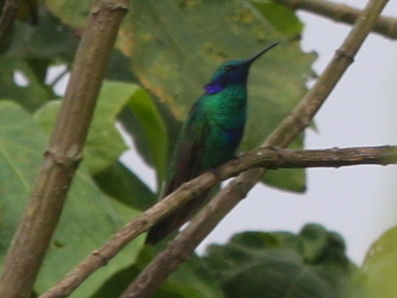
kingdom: Animalia
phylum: Chordata
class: Aves
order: Apodiformes
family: Trochilidae
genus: Colibri
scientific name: Colibri coruscans
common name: Sparkling violetear
